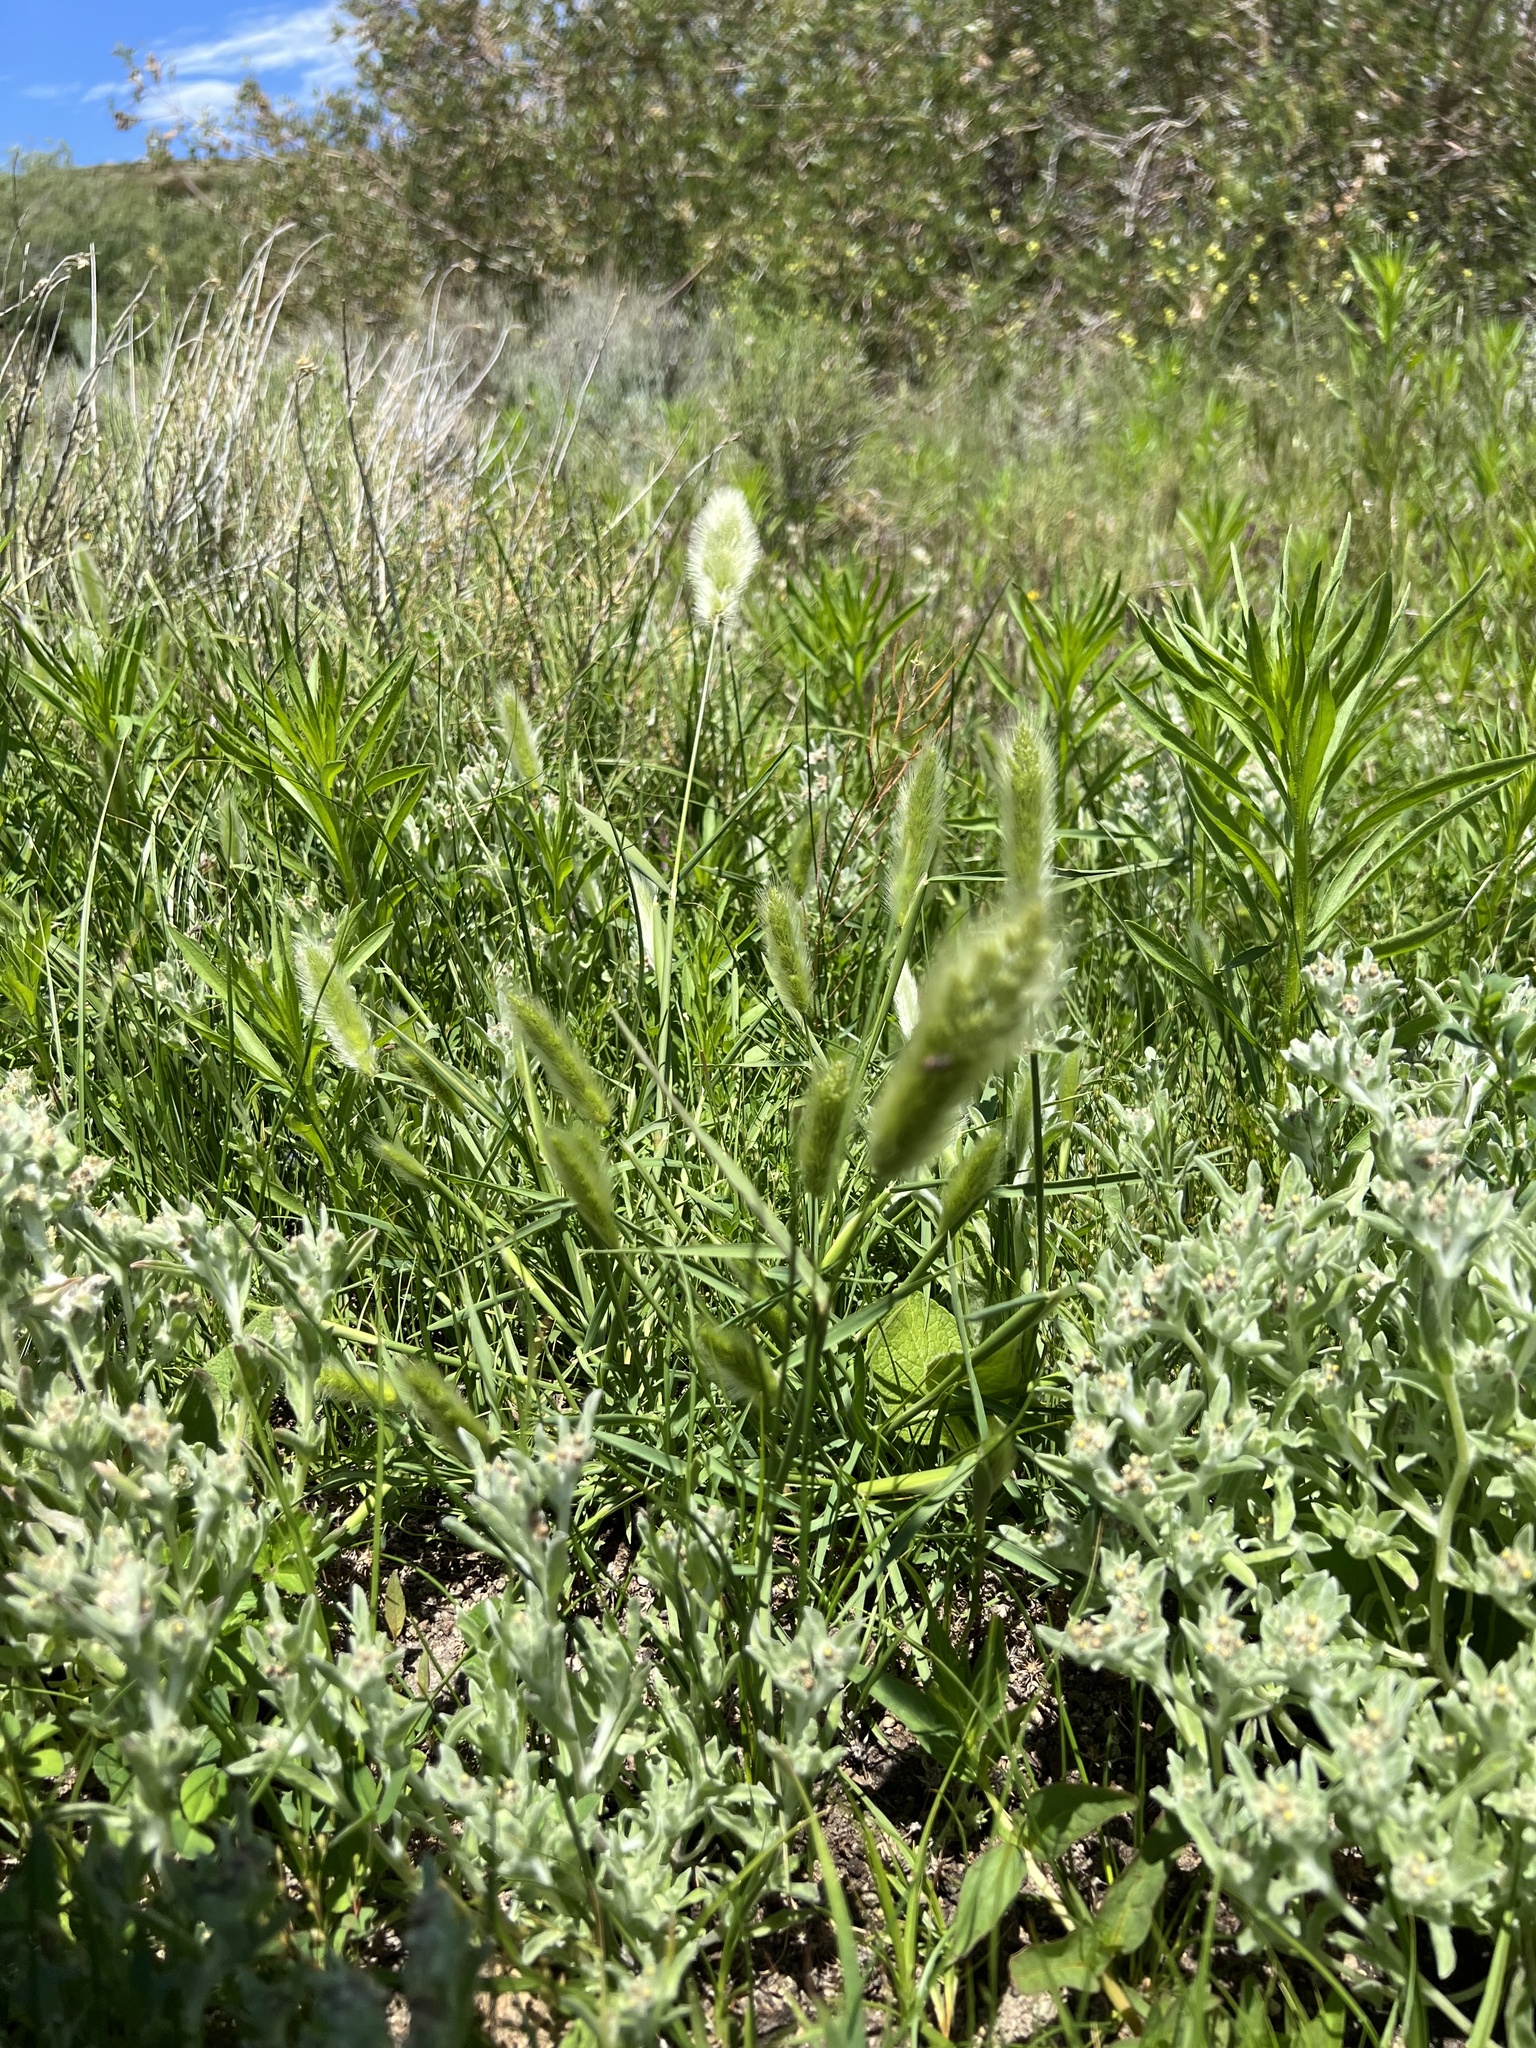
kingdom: Plantae
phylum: Tracheophyta
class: Liliopsida
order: Poales
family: Poaceae
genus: Polypogon
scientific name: Polypogon monspeliensis
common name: Annual rabbitsfoot grass
